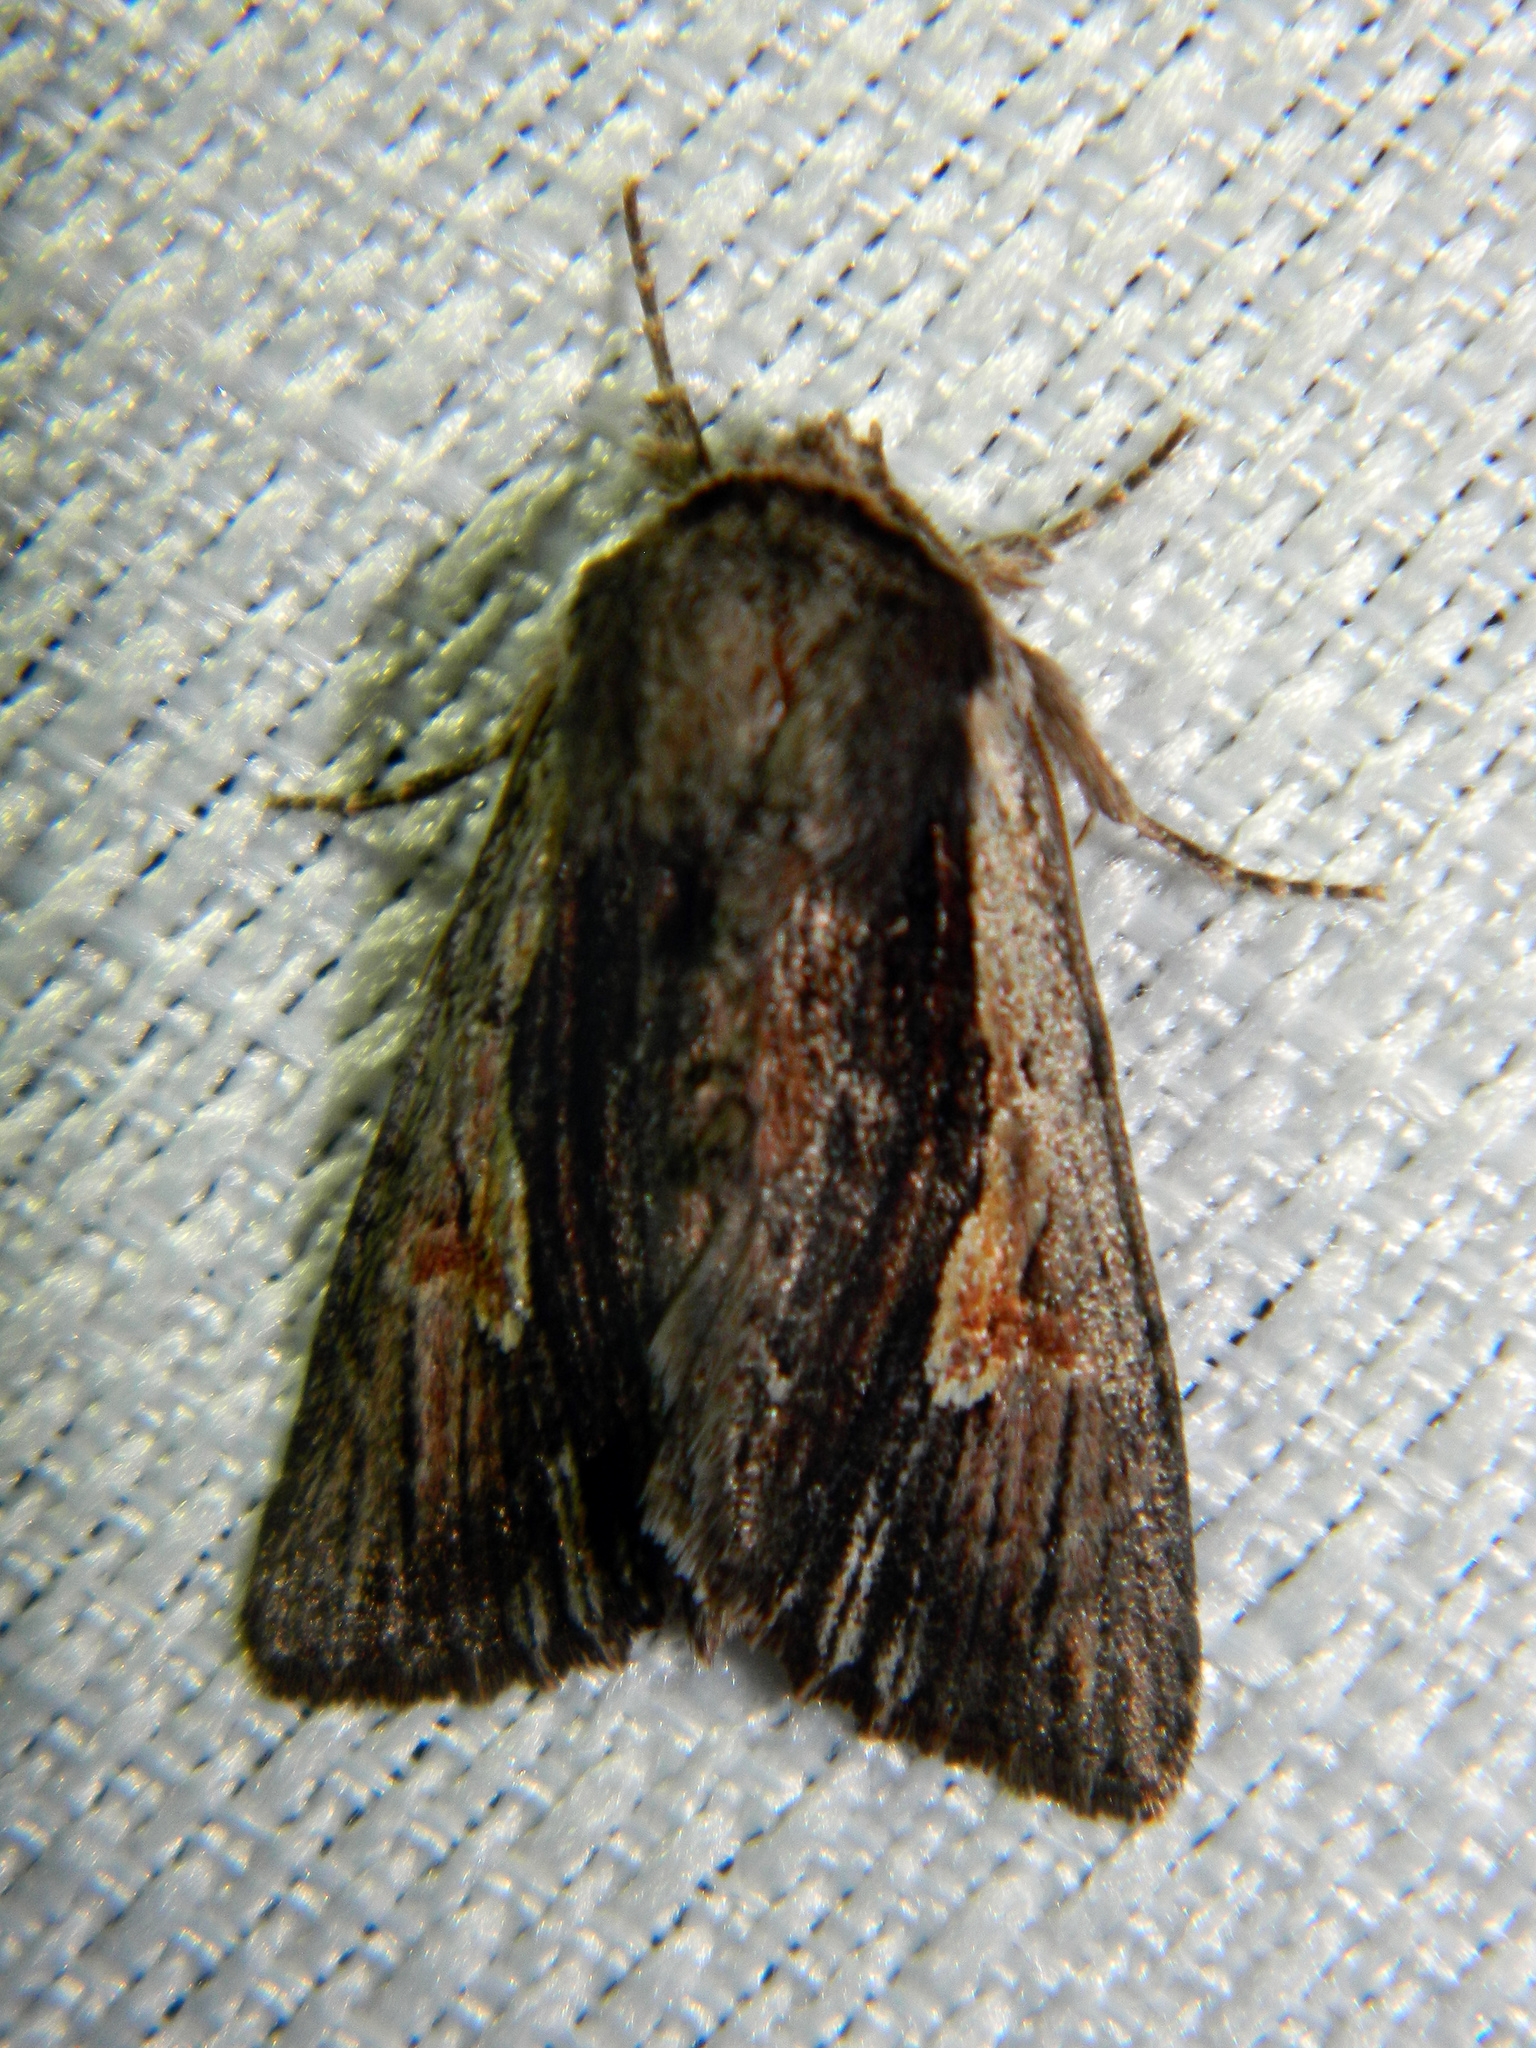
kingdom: Animalia
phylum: Arthropoda
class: Insecta
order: Lepidoptera
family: Noctuidae
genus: Achatia
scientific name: Achatia evicta
